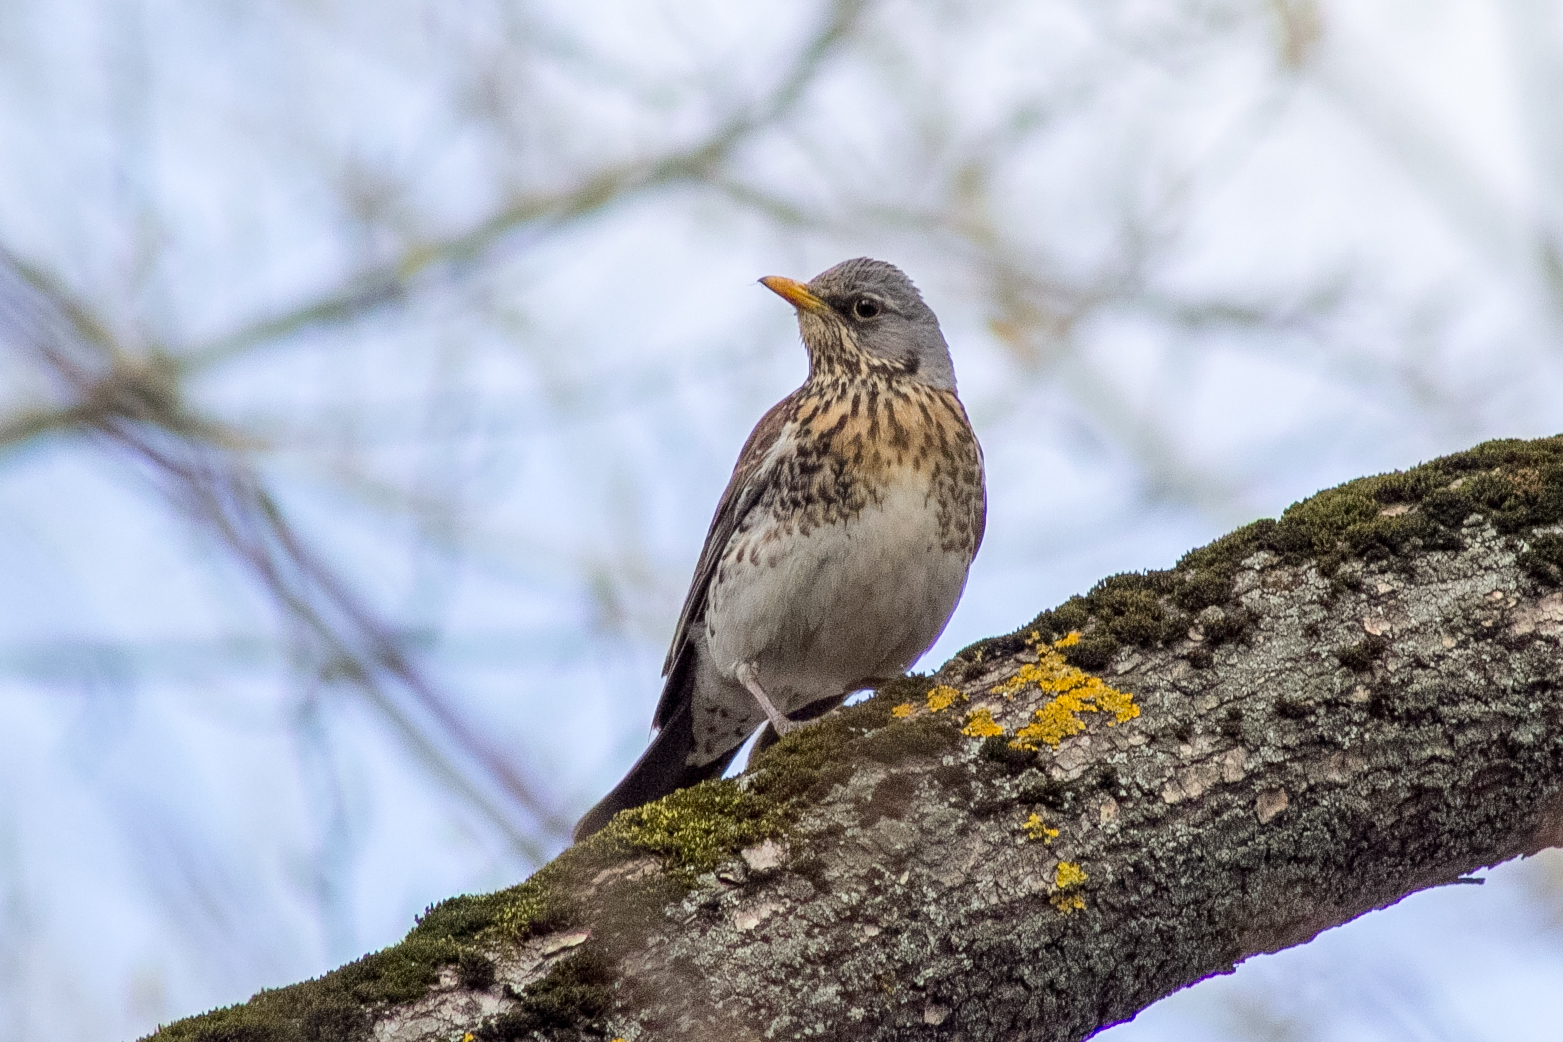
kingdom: Animalia
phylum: Chordata
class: Aves
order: Passeriformes
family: Turdidae
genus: Turdus
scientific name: Turdus pilaris
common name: Fieldfare
